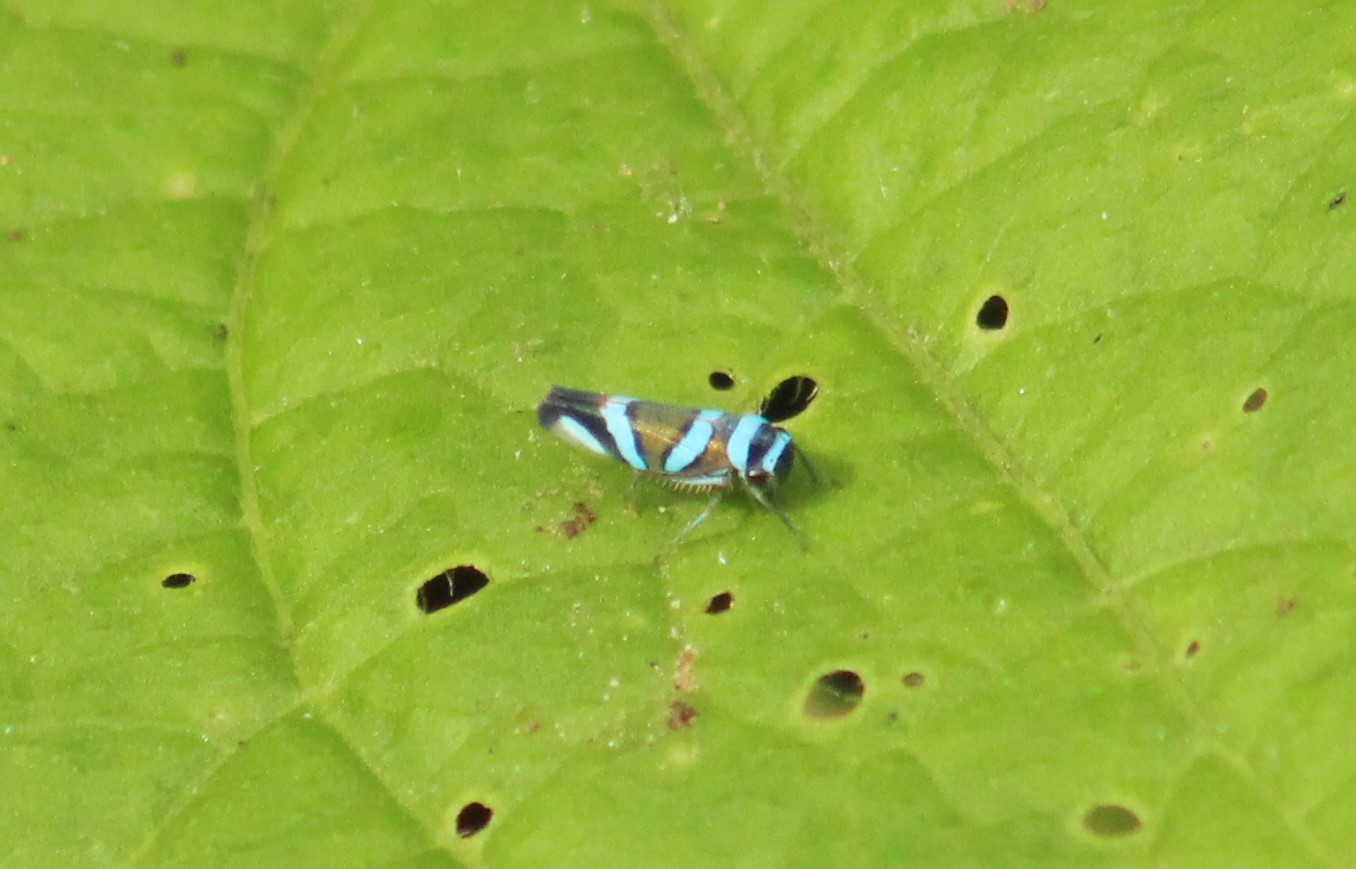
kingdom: Animalia
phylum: Arthropoda
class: Insecta
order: Hemiptera
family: Cicadellidae
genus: Macugonalia
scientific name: Macugonalia moesta
